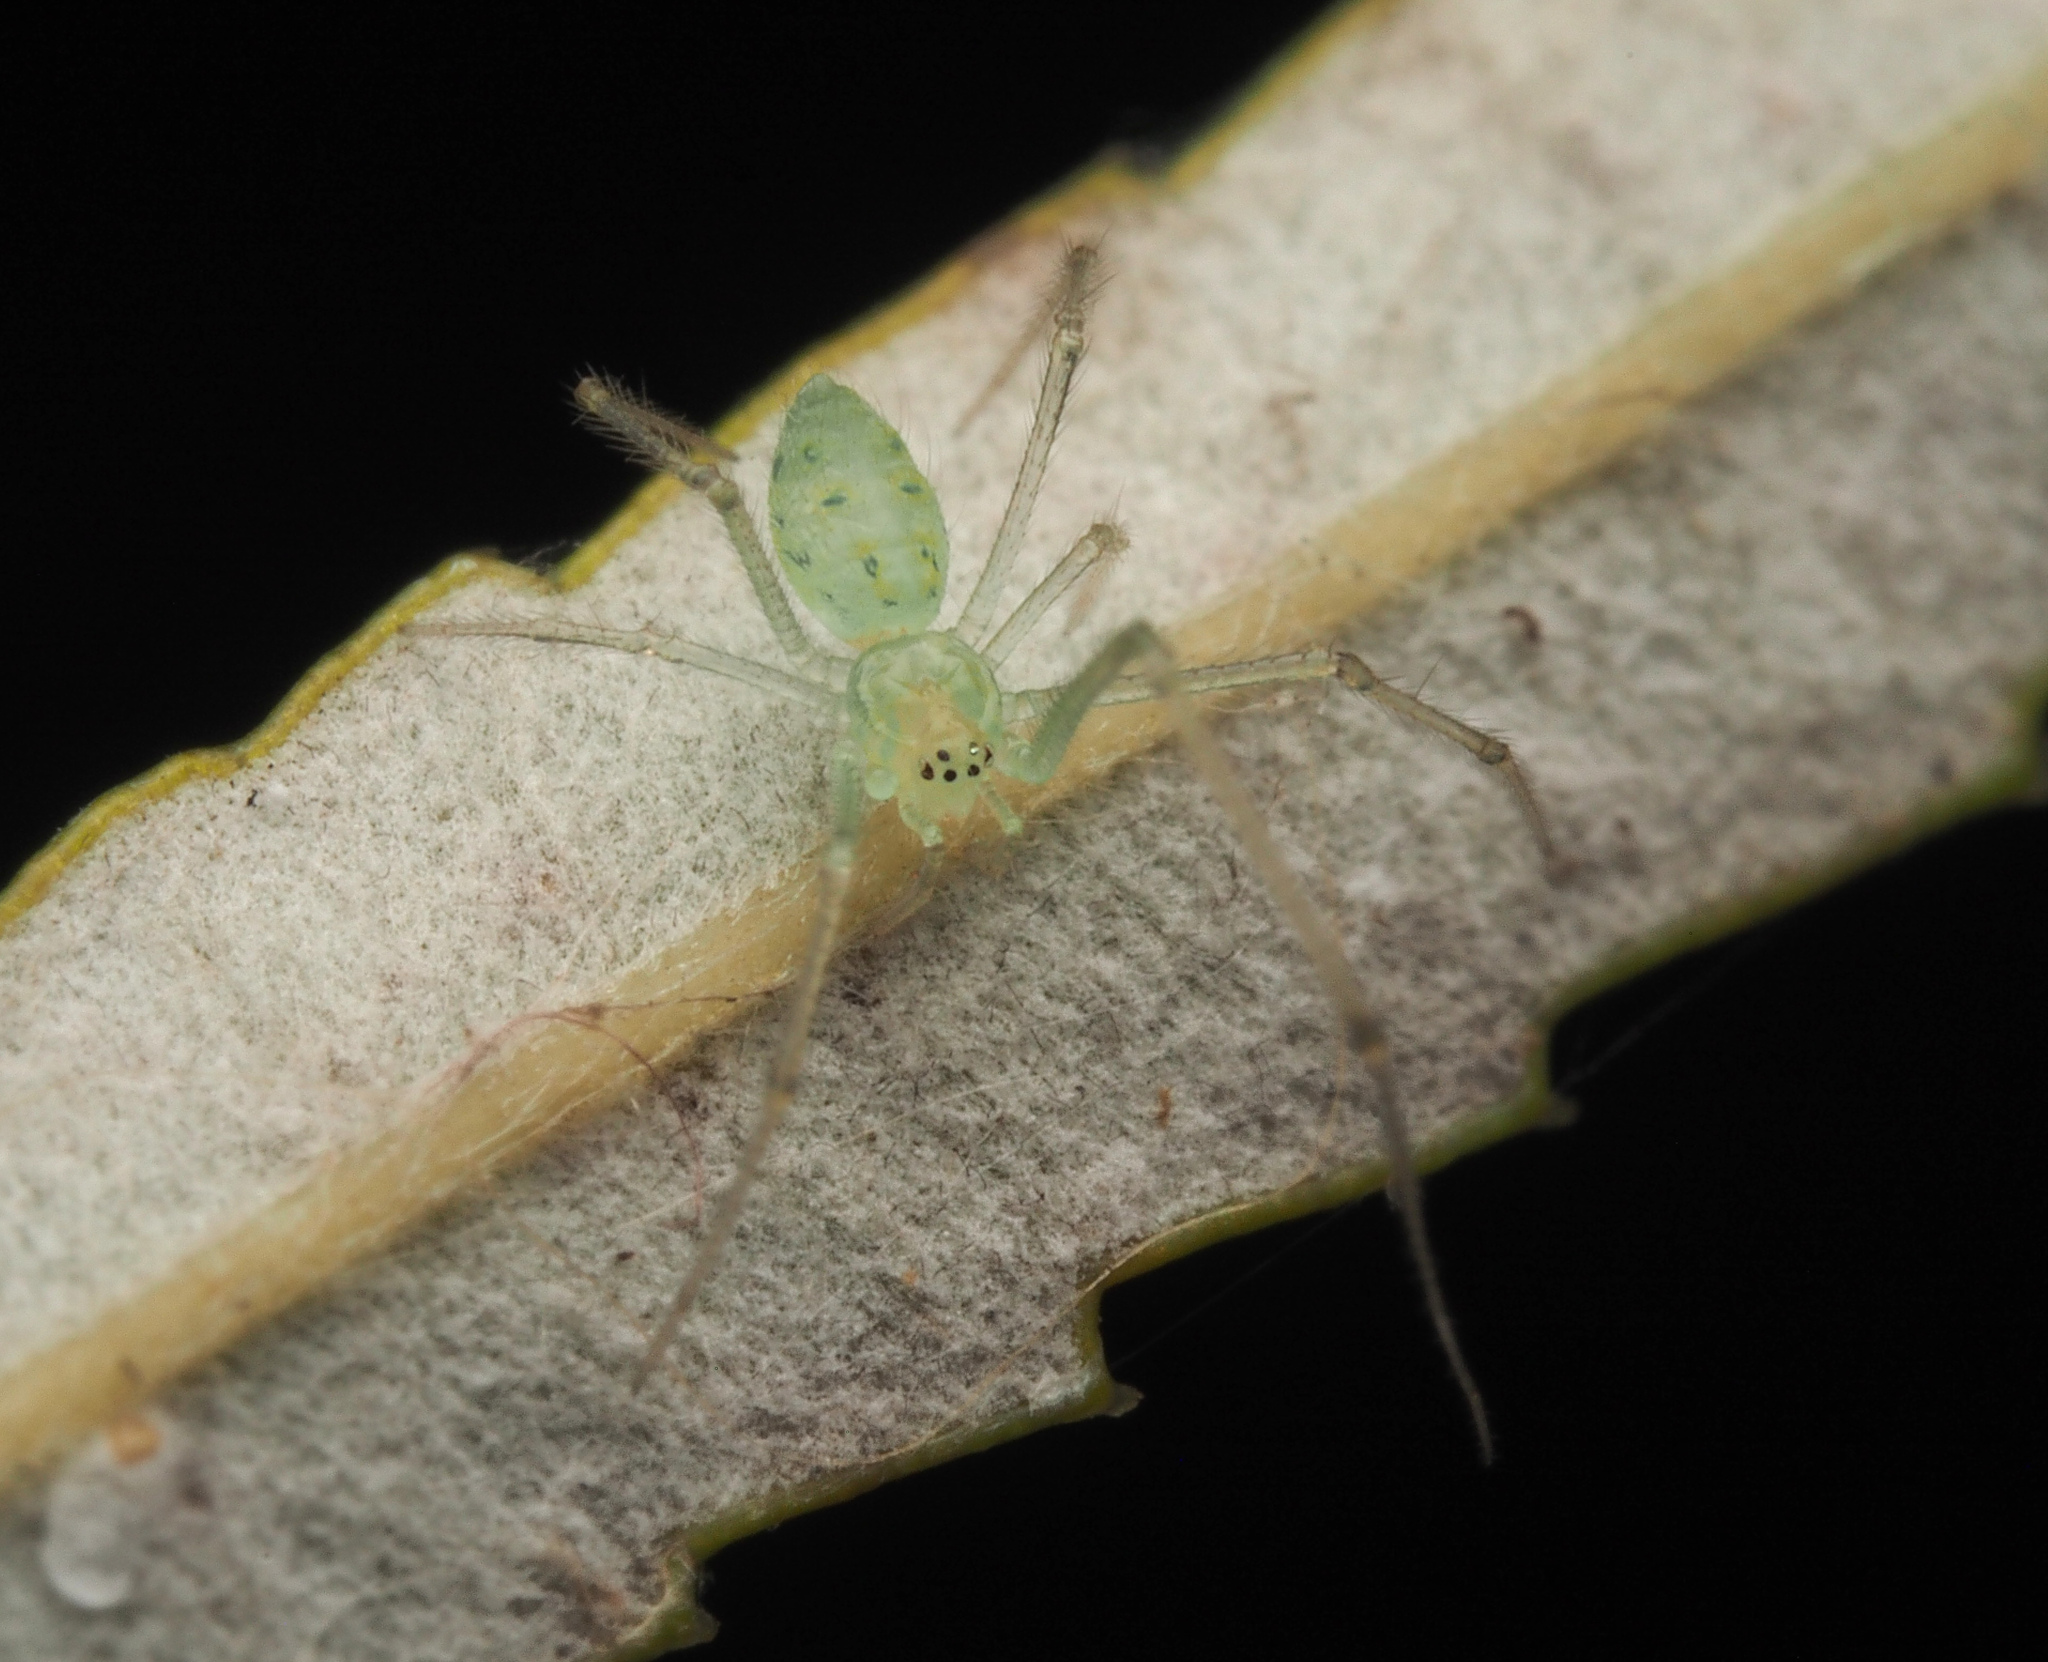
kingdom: Animalia
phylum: Arthropoda
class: Arachnida
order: Araneae
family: Theridiidae
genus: Chrysso
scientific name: Chrysso
